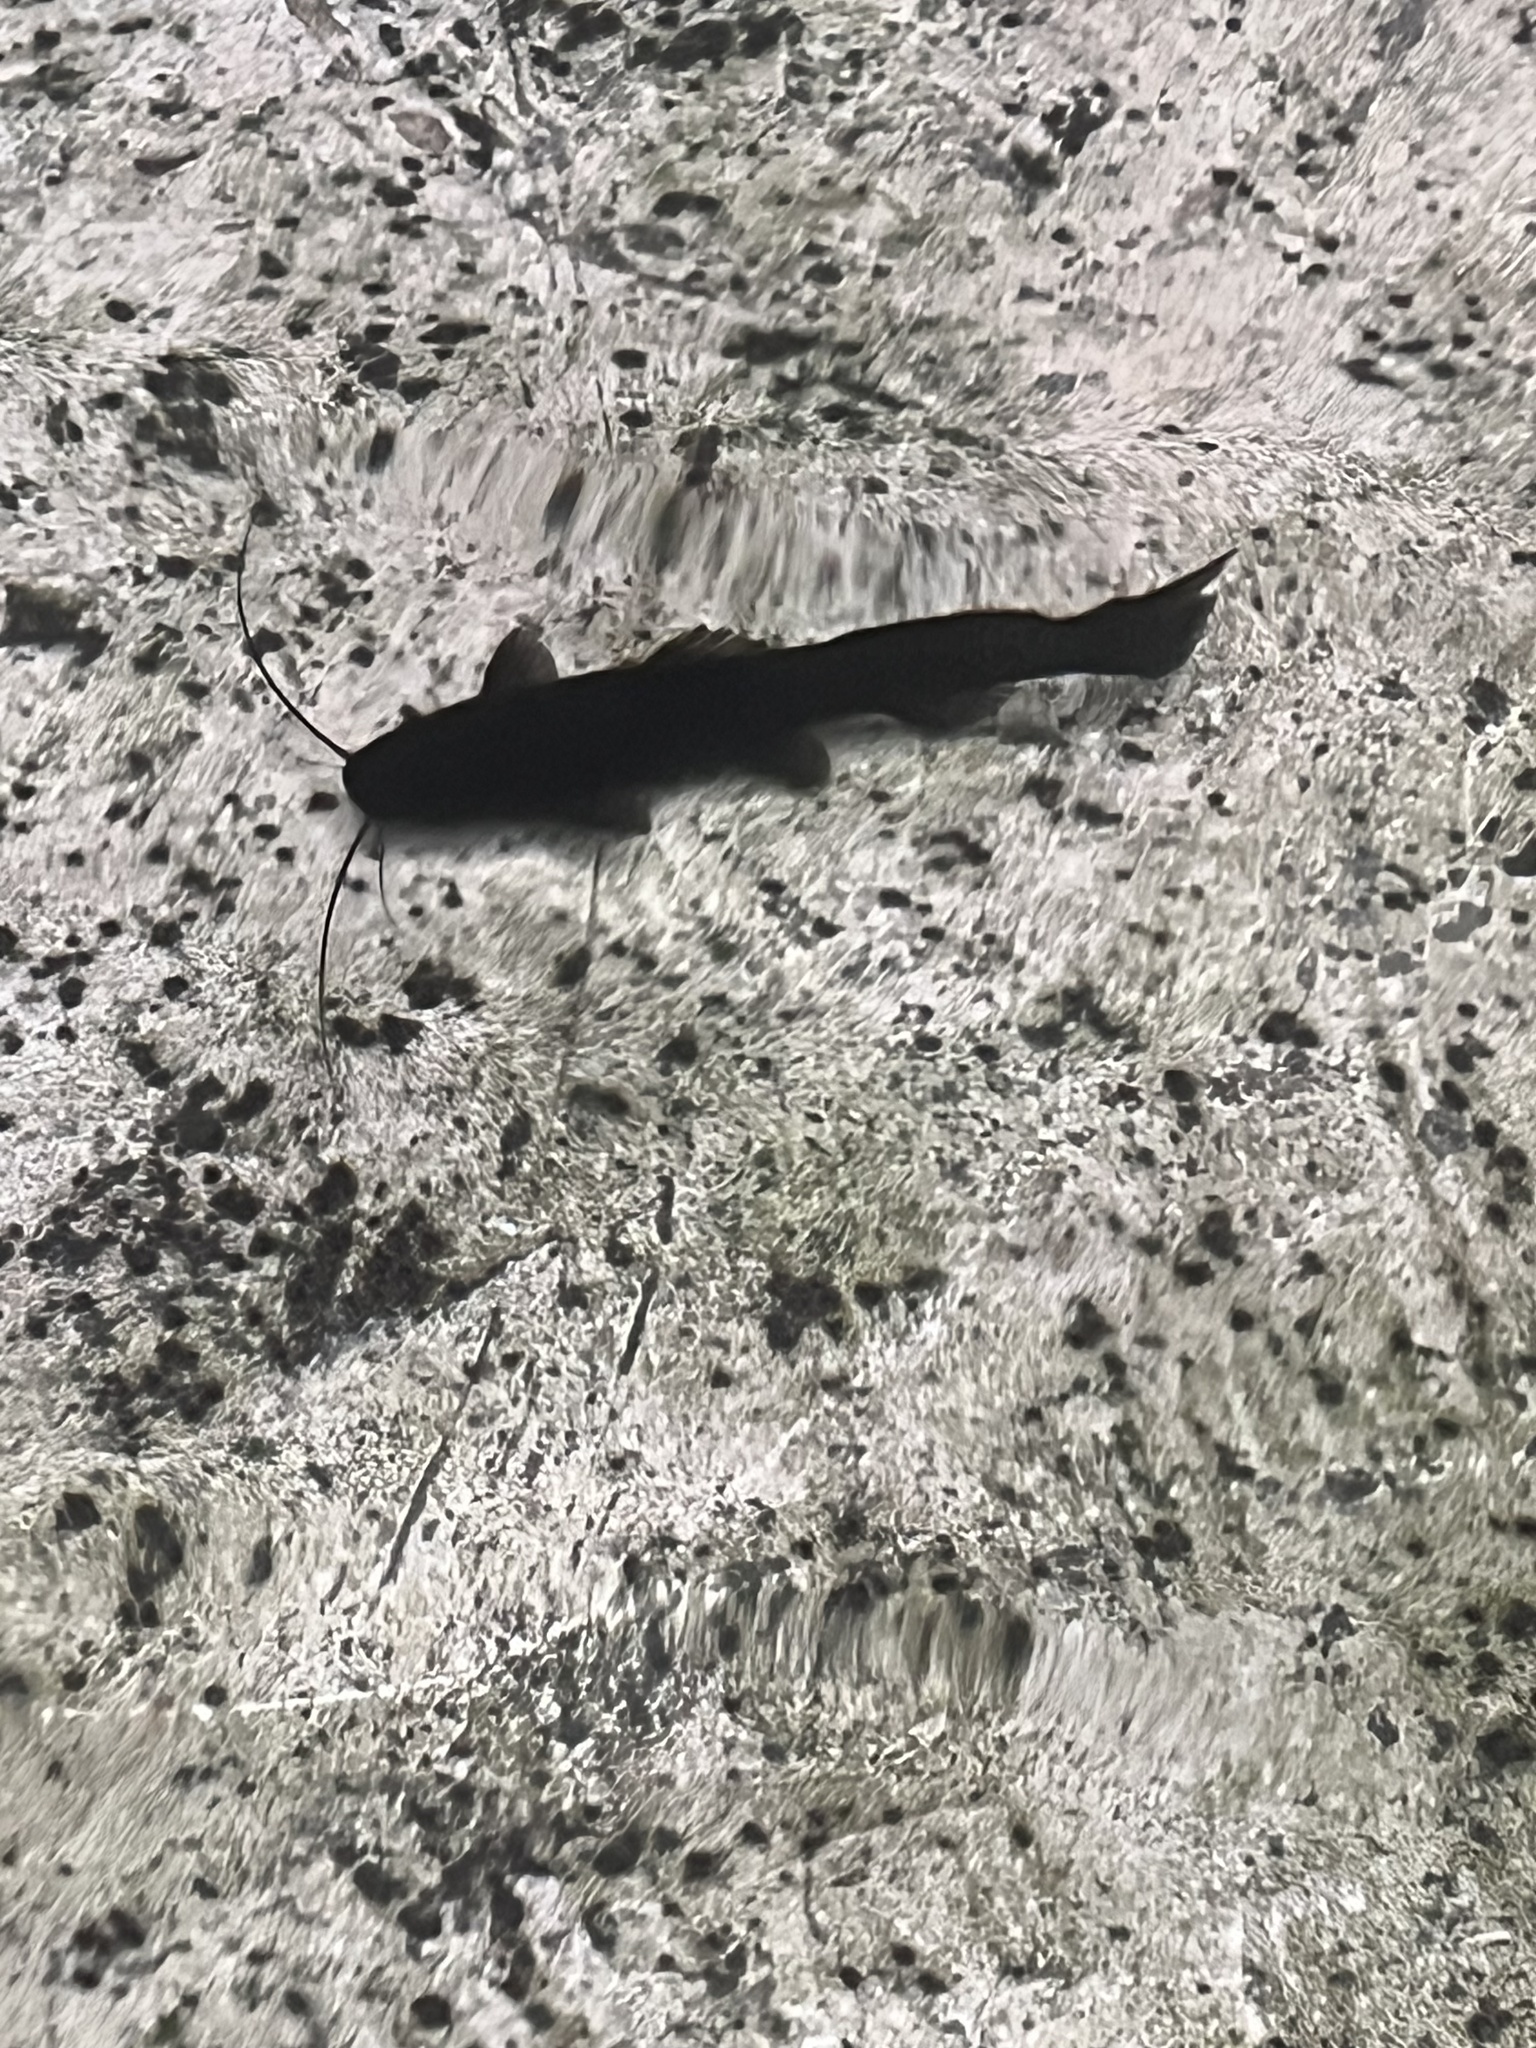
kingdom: Animalia
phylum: Chordata
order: Siluriformes
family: Heptapteridae
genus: Rhamdia
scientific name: Rhamdia guatemalensis
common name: Pale catfish
